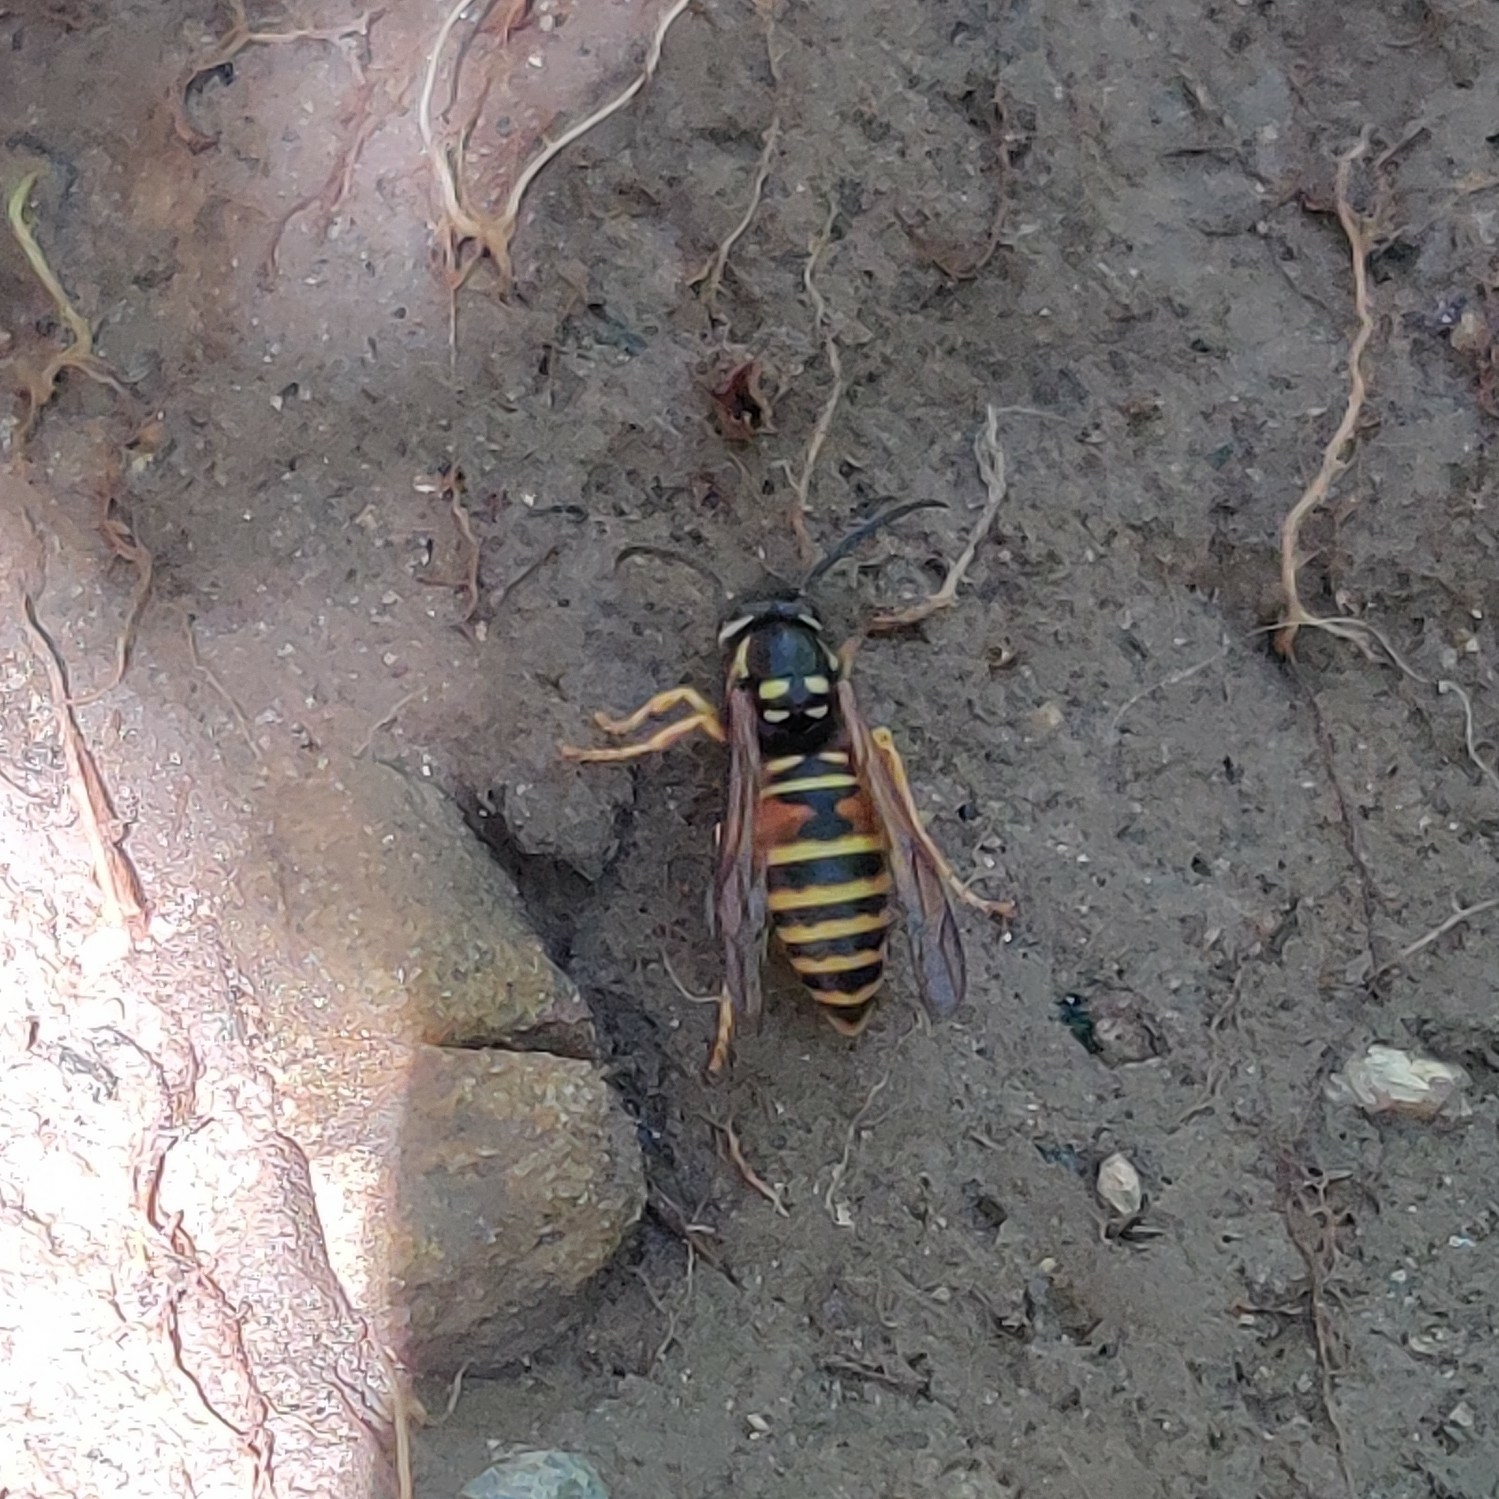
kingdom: Animalia
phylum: Arthropoda
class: Insecta
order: Hymenoptera
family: Vespidae
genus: Vespula
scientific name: Vespula nursei
